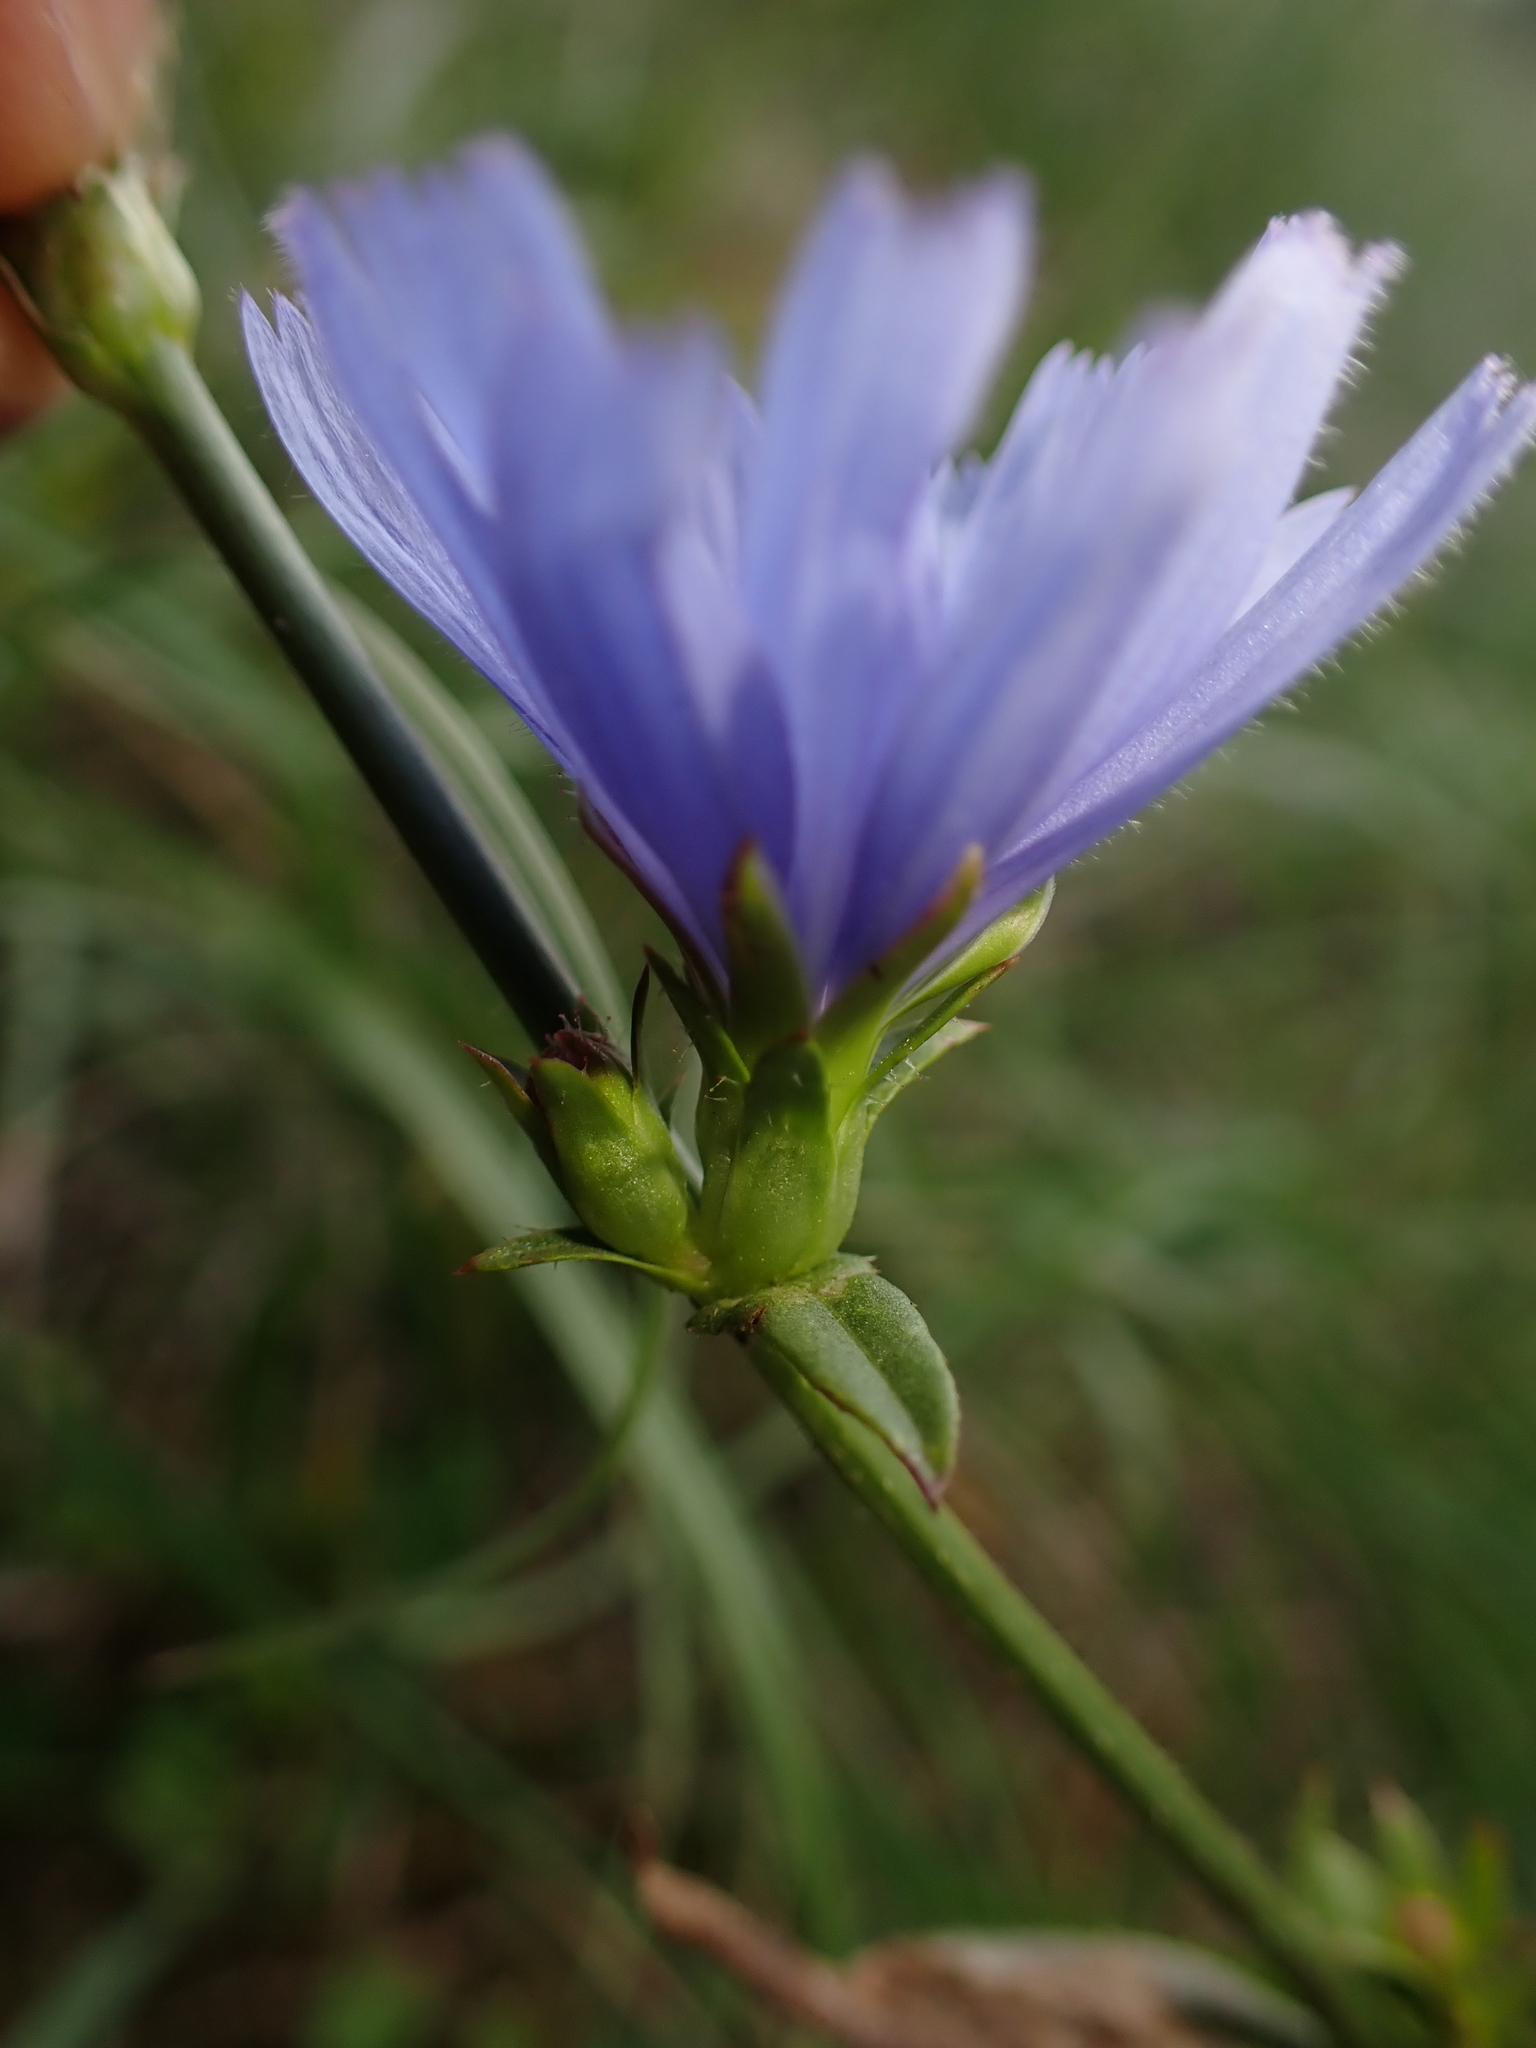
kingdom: Plantae
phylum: Tracheophyta
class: Magnoliopsida
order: Asterales
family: Asteraceae
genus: Cichorium
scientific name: Cichorium intybus
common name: Chicory
